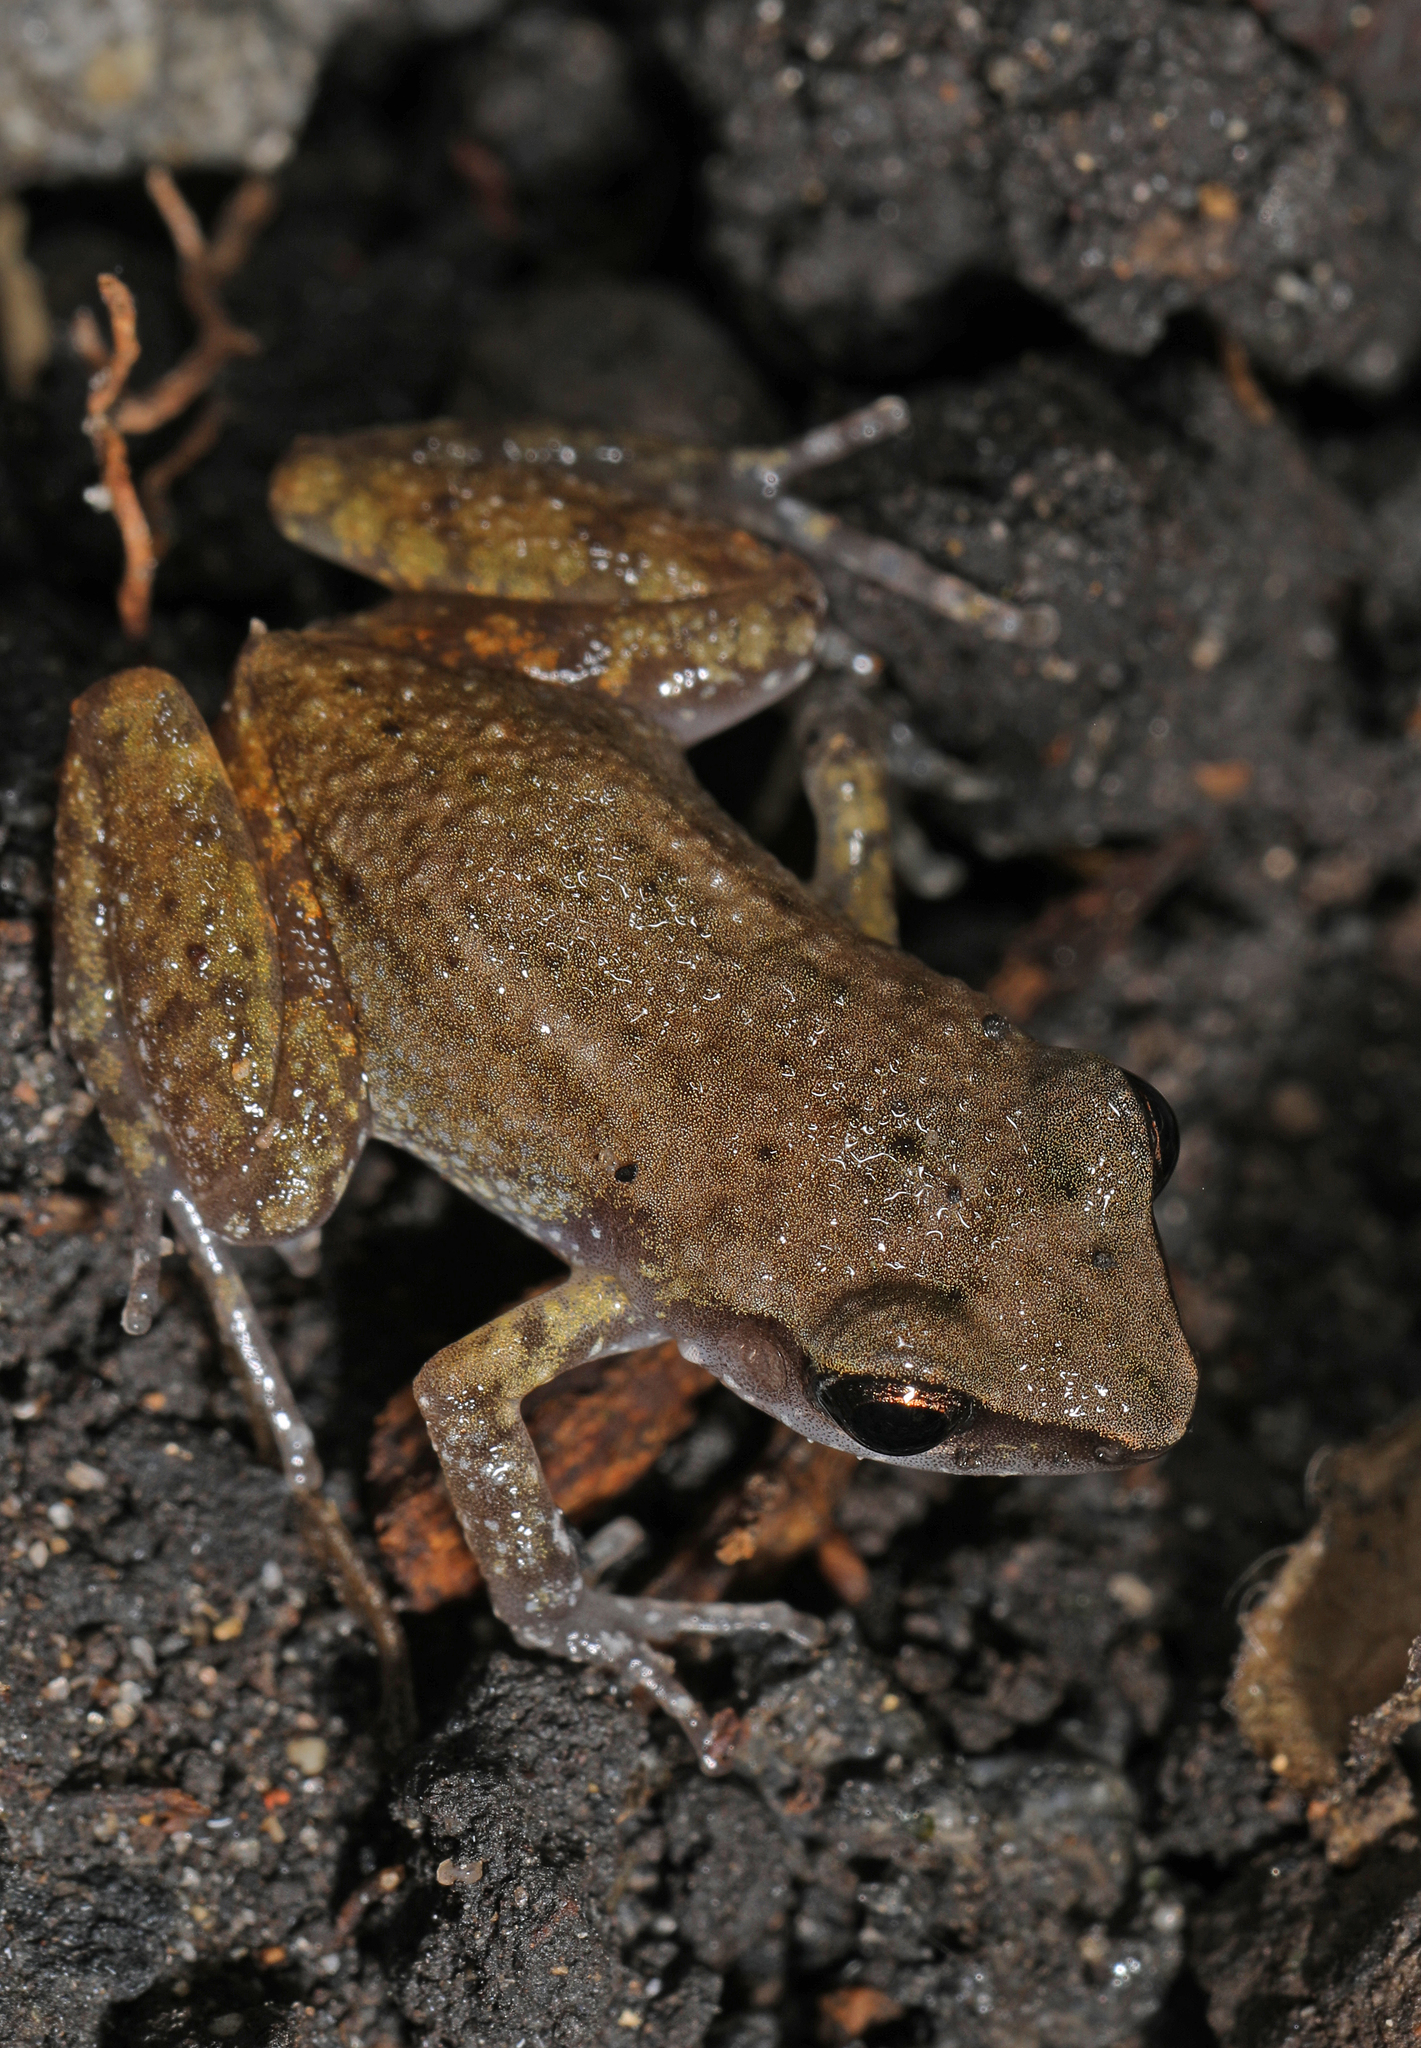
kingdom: Animalia
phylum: Chordata
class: Amphibia
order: Anura
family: Eleutherodactylidae
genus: Eleutherodactylus
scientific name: Eleutherodactylus campi
